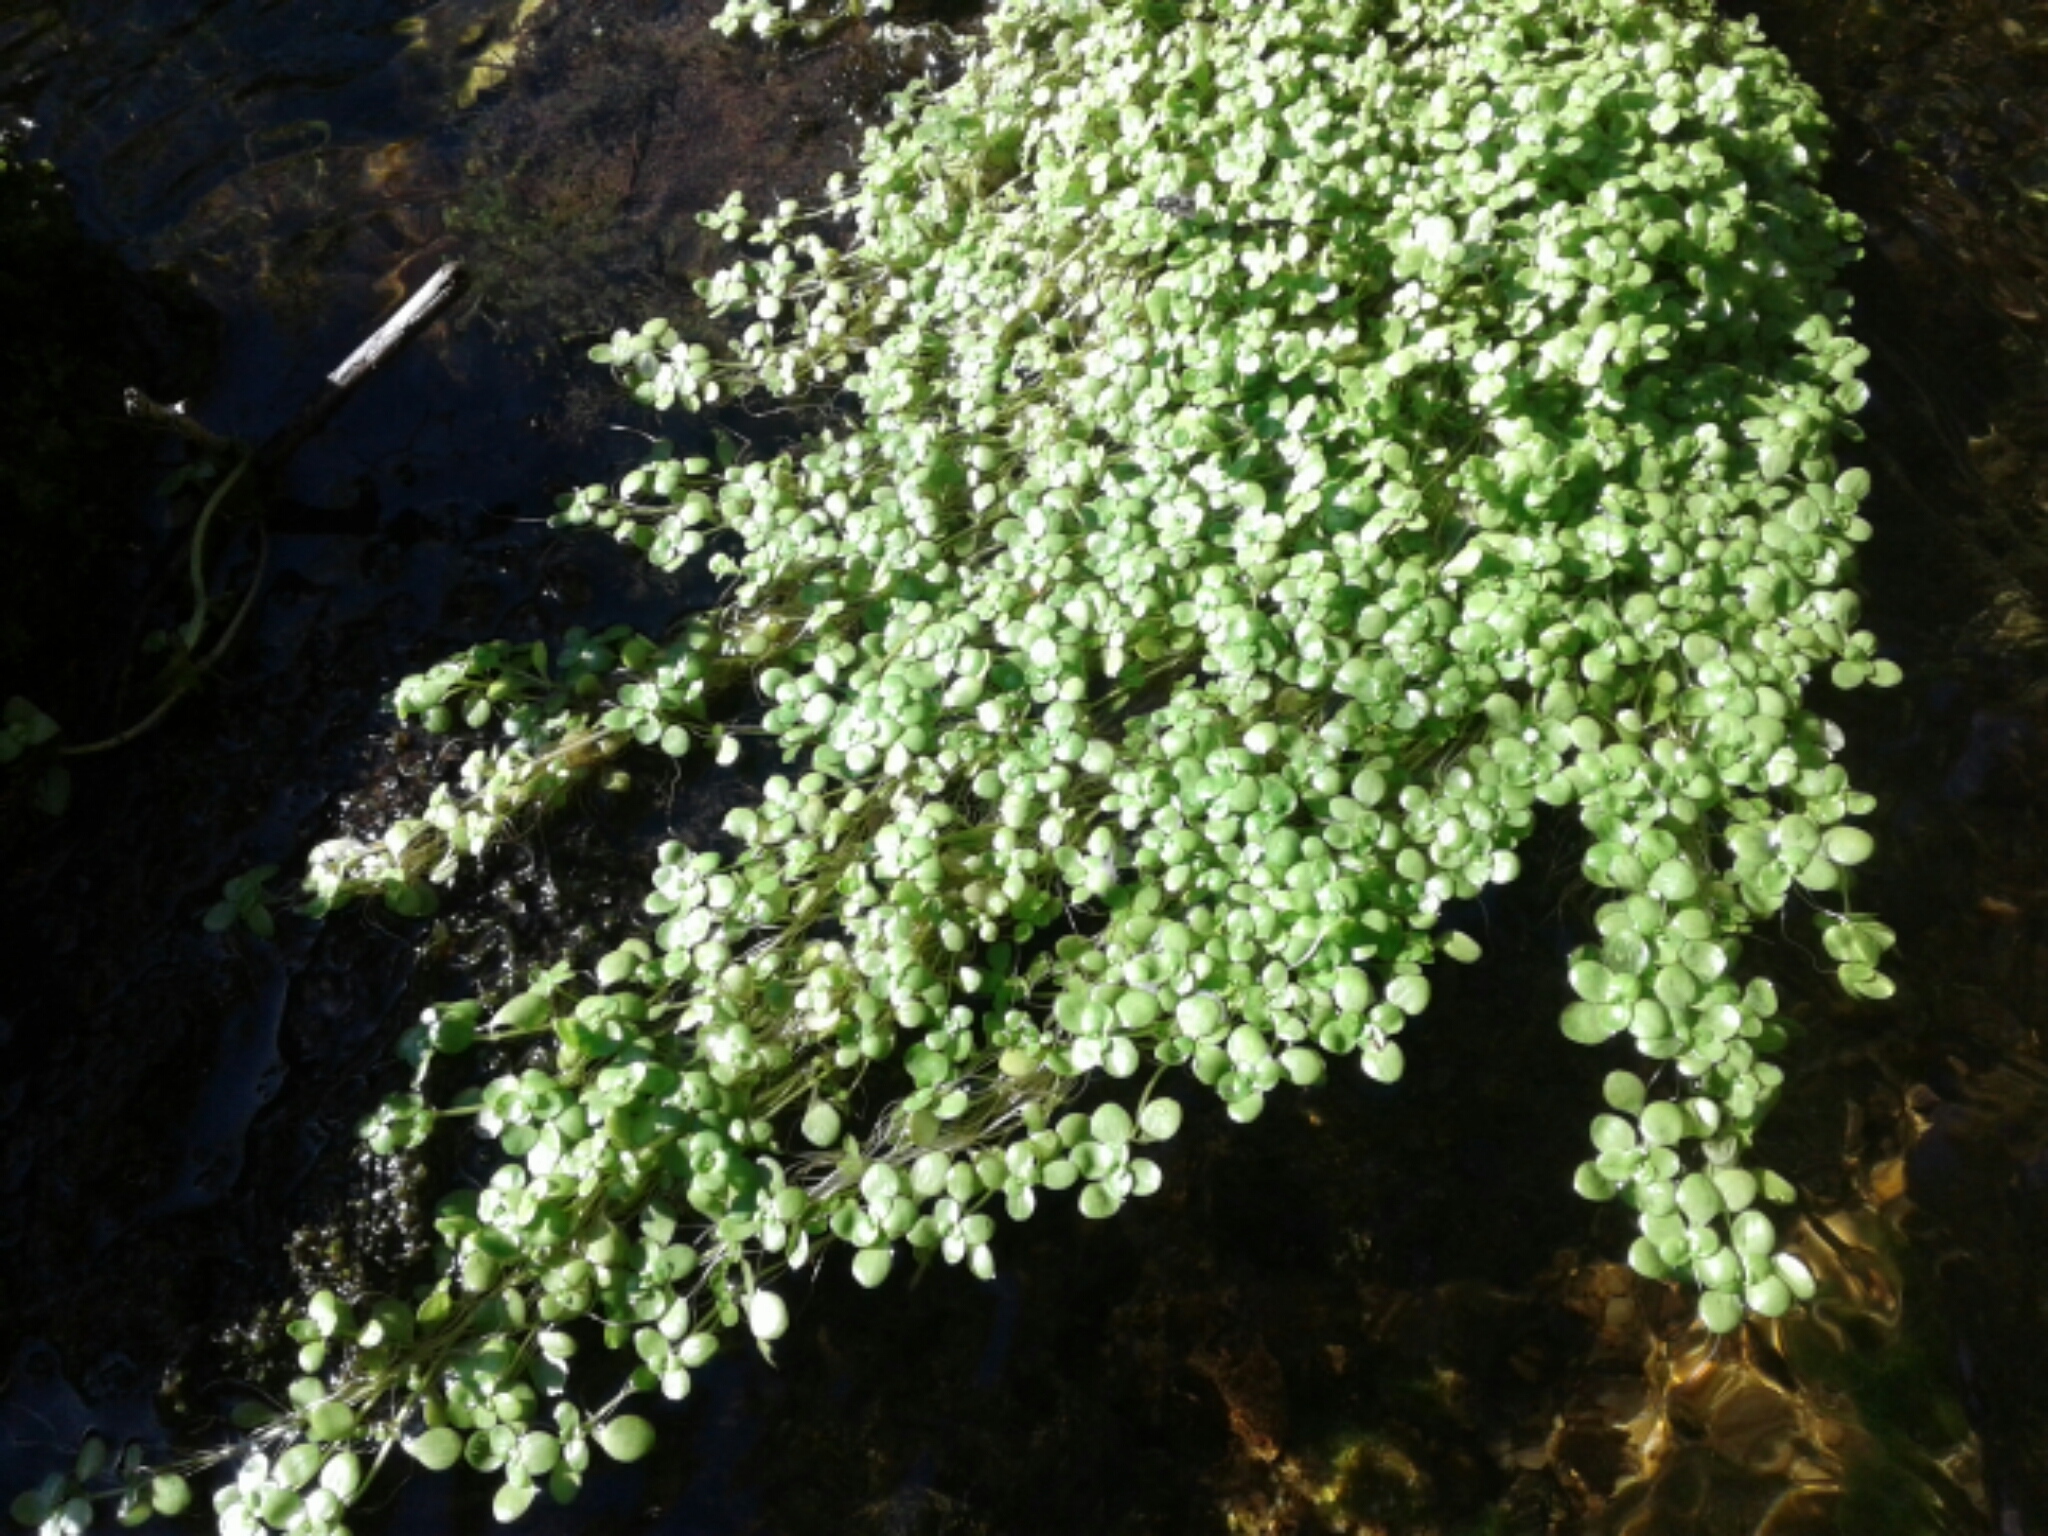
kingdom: Plantae
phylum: Tracheophyta
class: Magnoliopsida
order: Lamiales
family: Plantaginaceae
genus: Callitriche
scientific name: Callitriche
